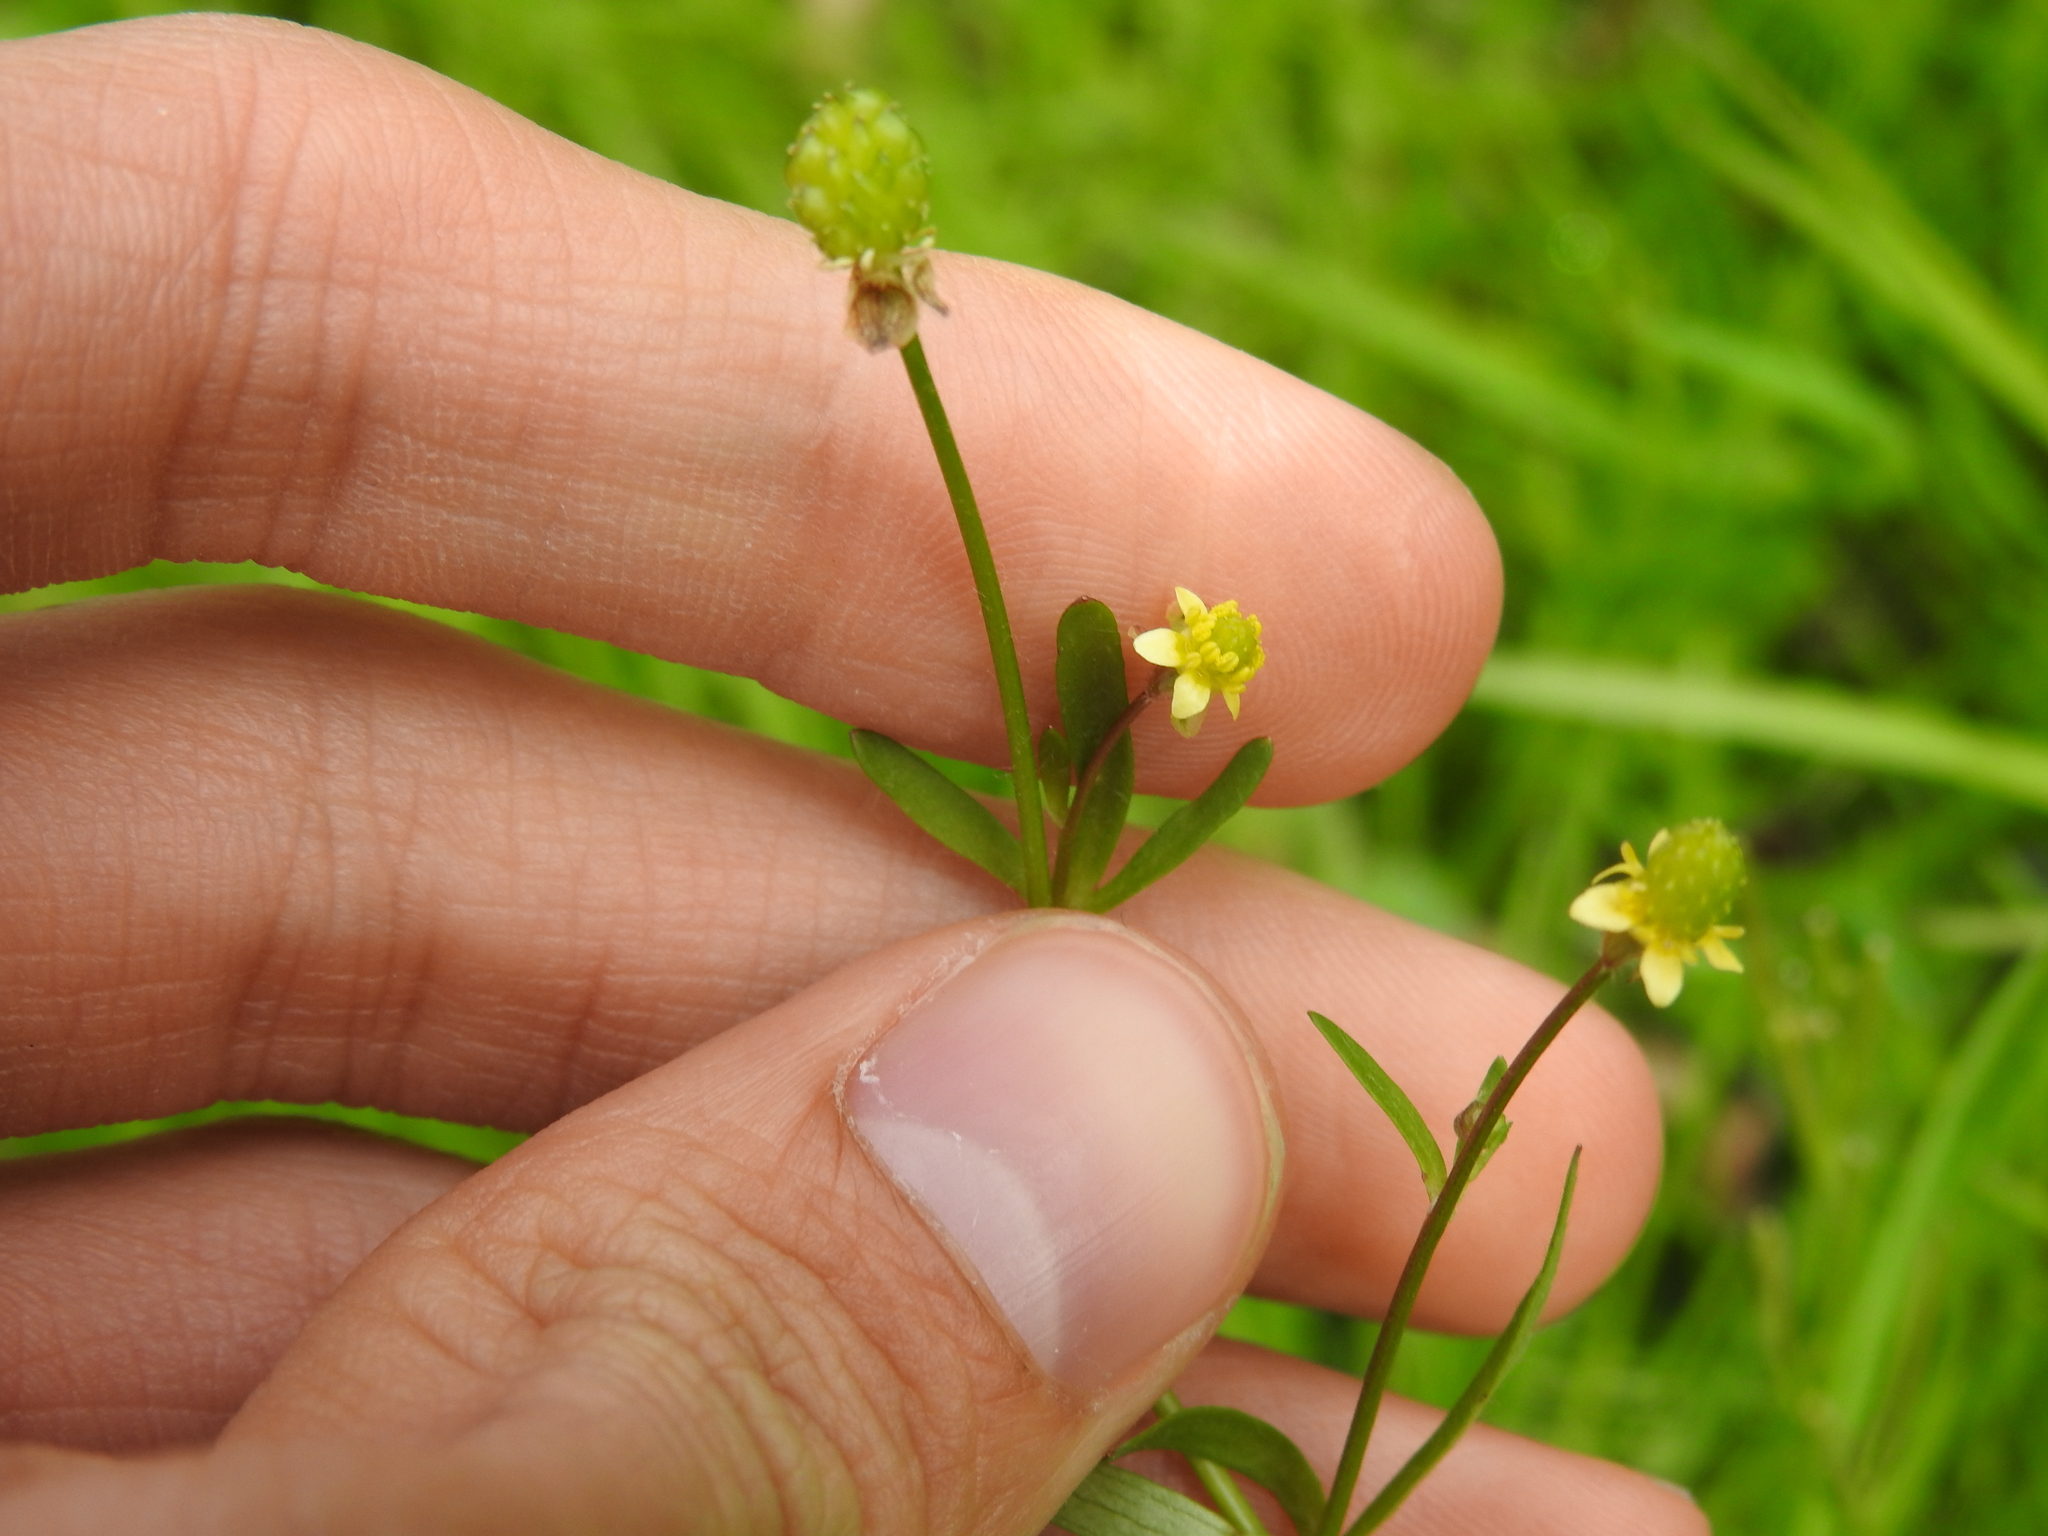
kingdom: Plantae
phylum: Tracheophyta
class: Magnoliopsida
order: Ranunculales
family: Ranunculaceae
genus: Ranunculus
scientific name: Ranunculus abortivus
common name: Early wood buttercup
